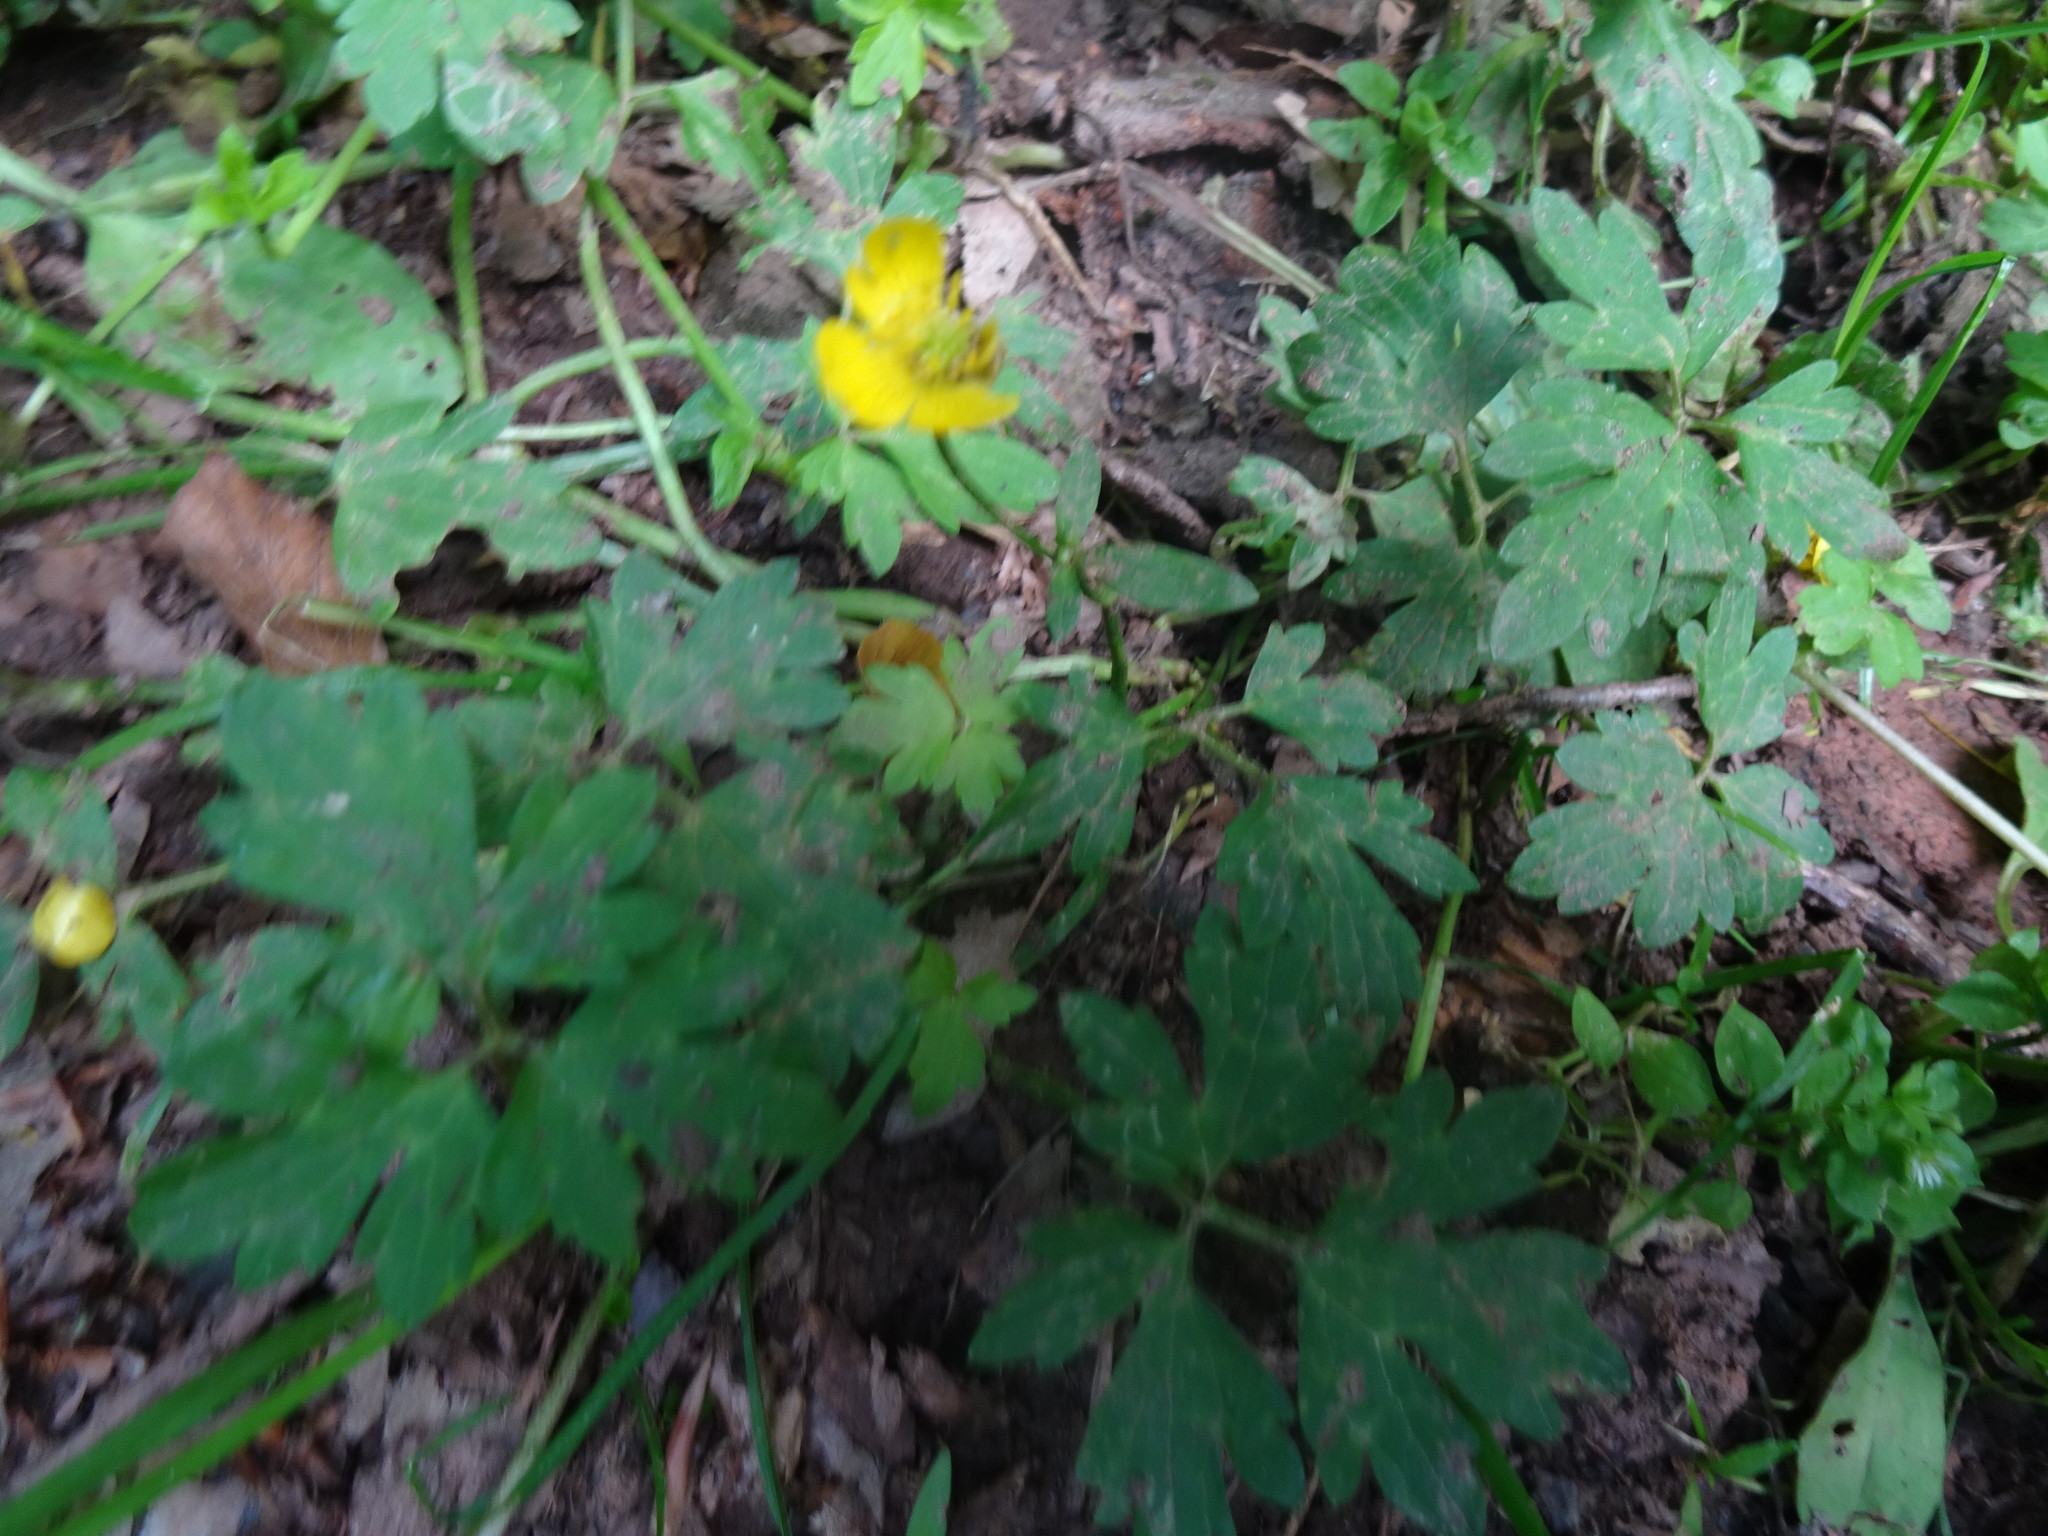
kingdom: Plantae
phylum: Tracheophyta
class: Magnoliopsida
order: Ranunculales
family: Ranunculaceae
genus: Ranunculus
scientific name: Ranunculus repens
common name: Creeping buttercup
